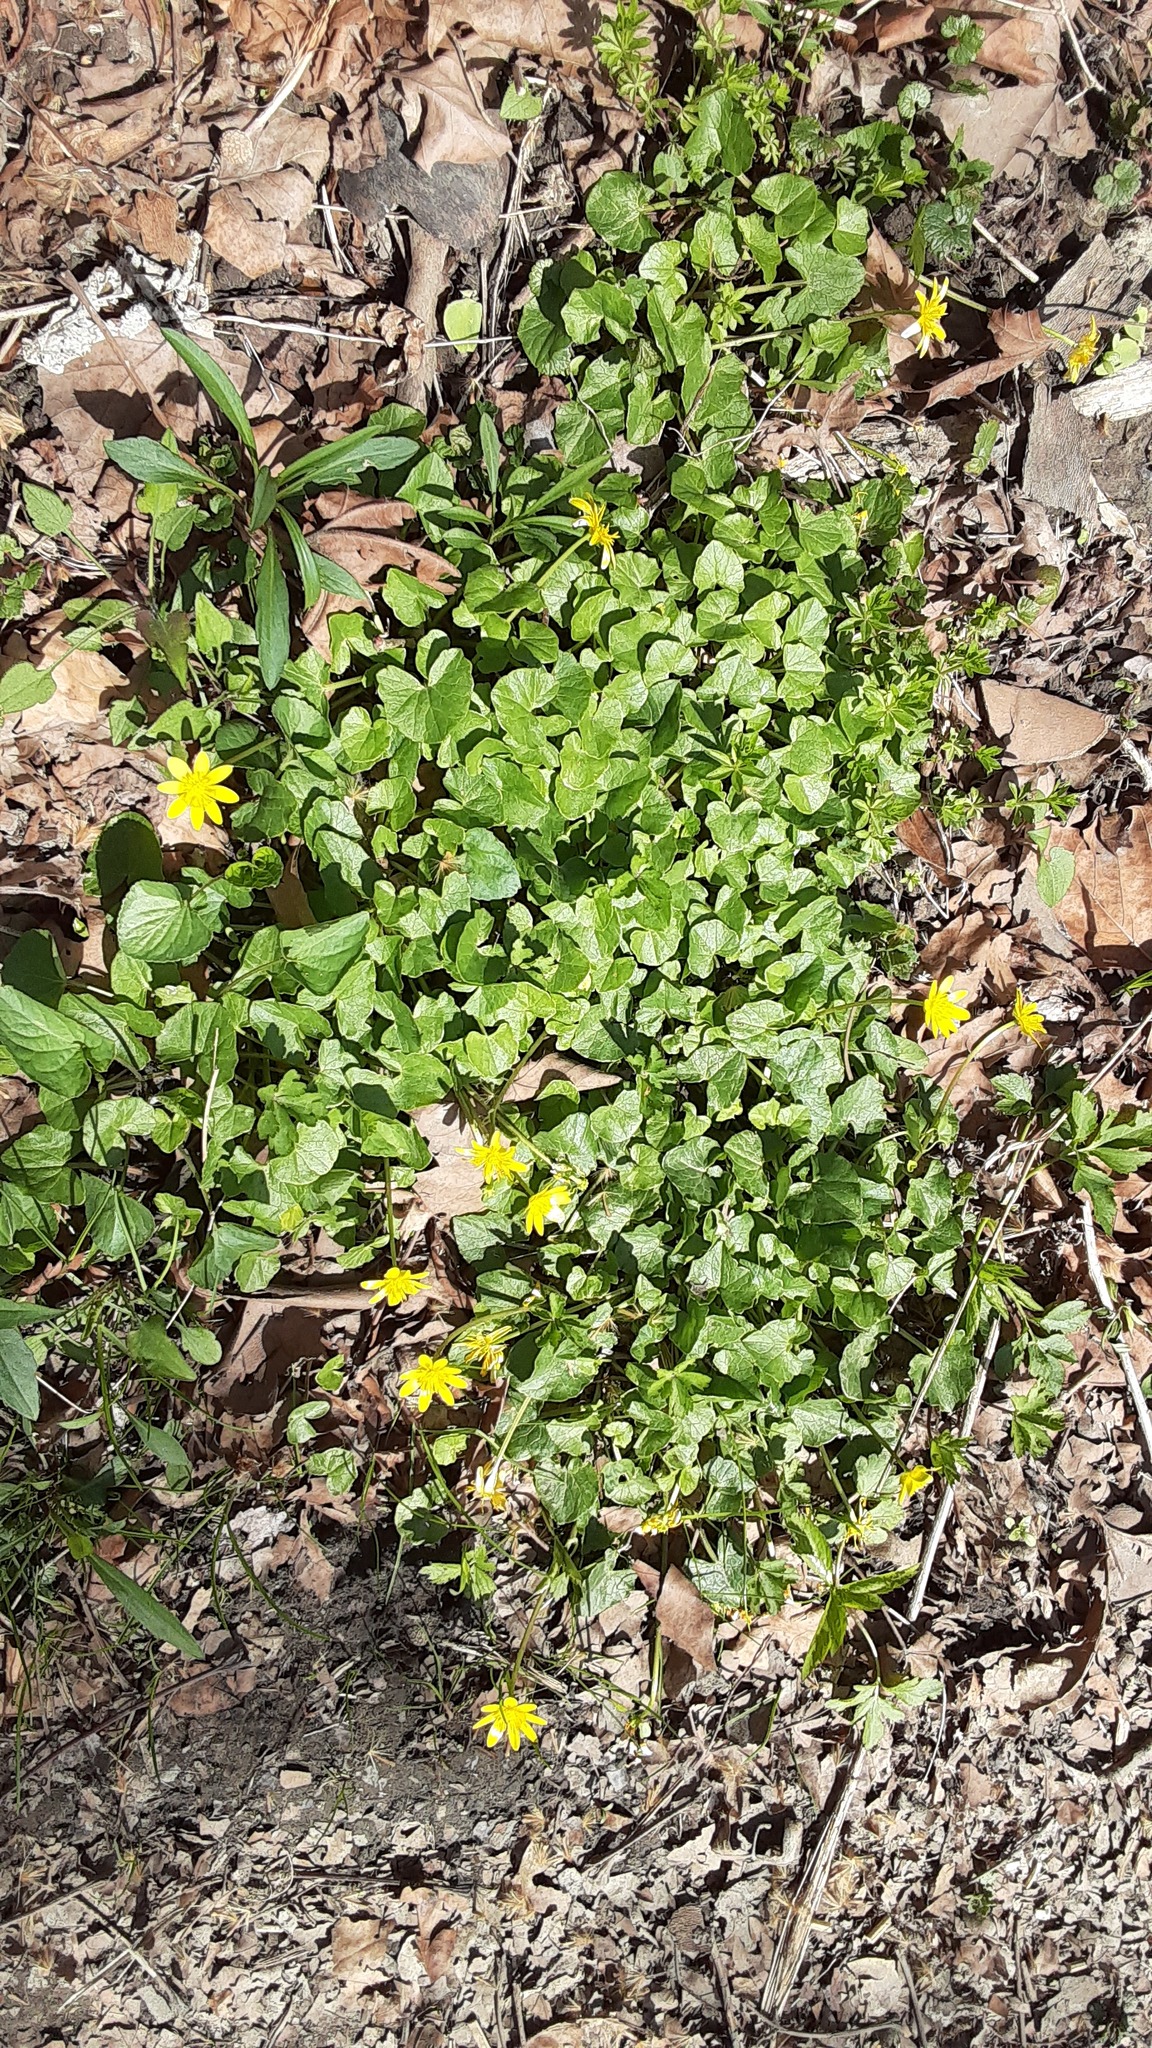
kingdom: Plantae
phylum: Tracheophyta
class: Magnoliopsida
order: Ranunculales
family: Ranunculaceae
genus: Ficaria
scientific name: Ficaria verna
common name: Lesser celandine
